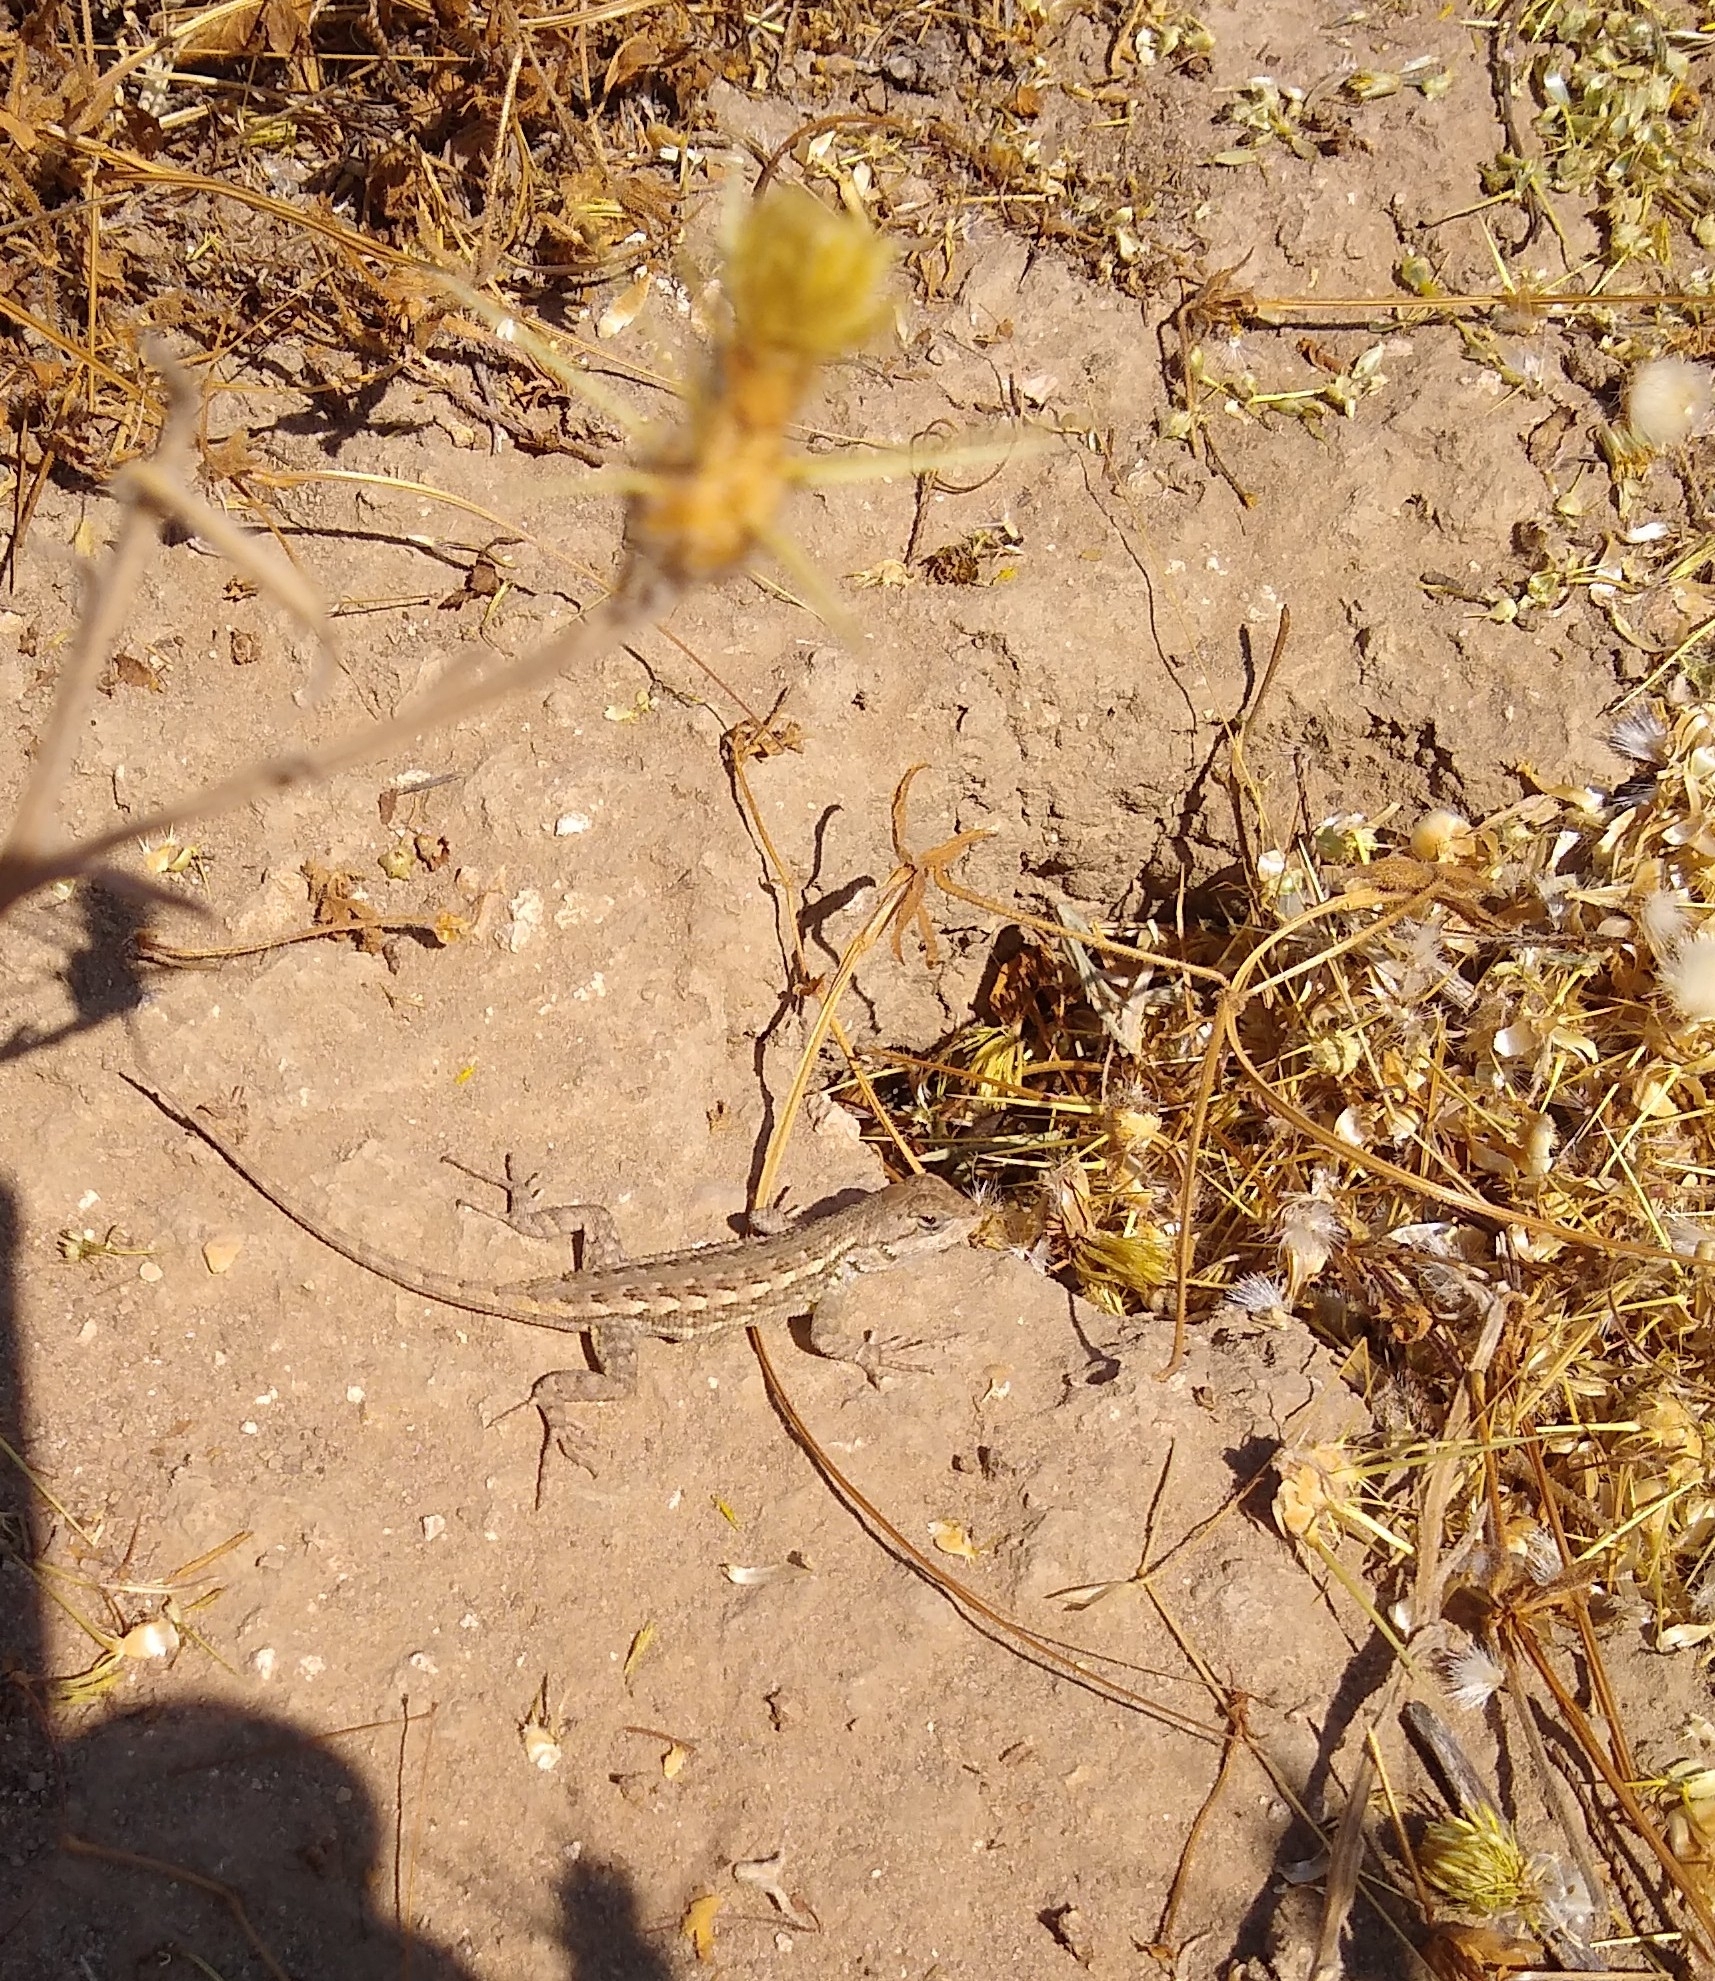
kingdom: Animalia
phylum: Chordata
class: Squamata
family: Phrynosomatidae
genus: Sceloporus
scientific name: Sceloporus occidentalis
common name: Western fence lizard
